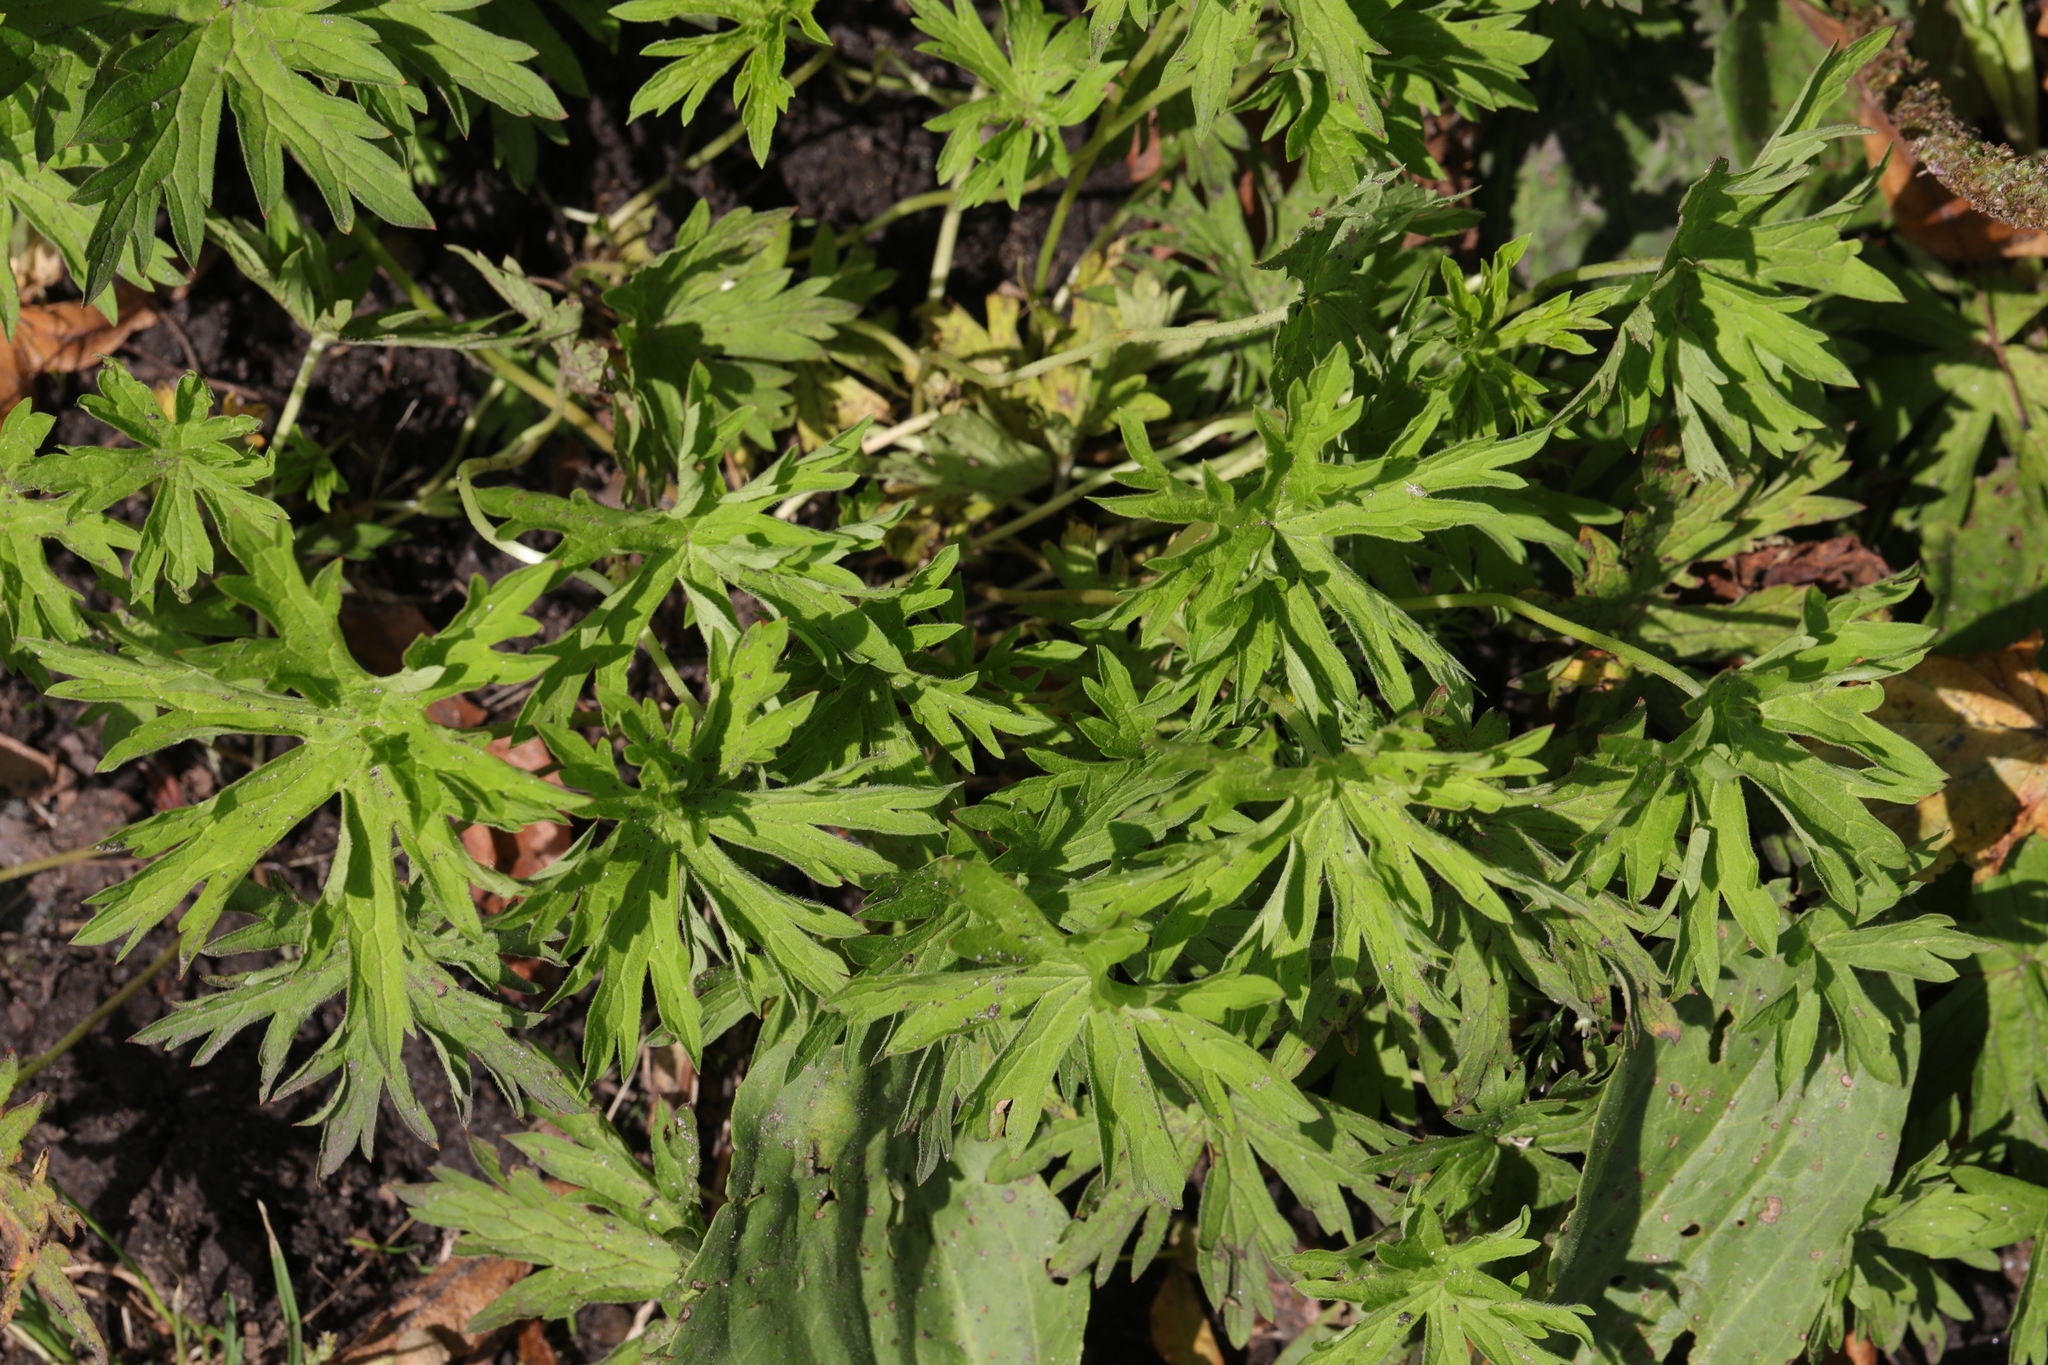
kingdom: Plantae
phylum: Tracheophyta
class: Magnoliopsida
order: Geraniales
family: Geraniaceae
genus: Geranium
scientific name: Geranium pratense
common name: Meadow crane's-bill
